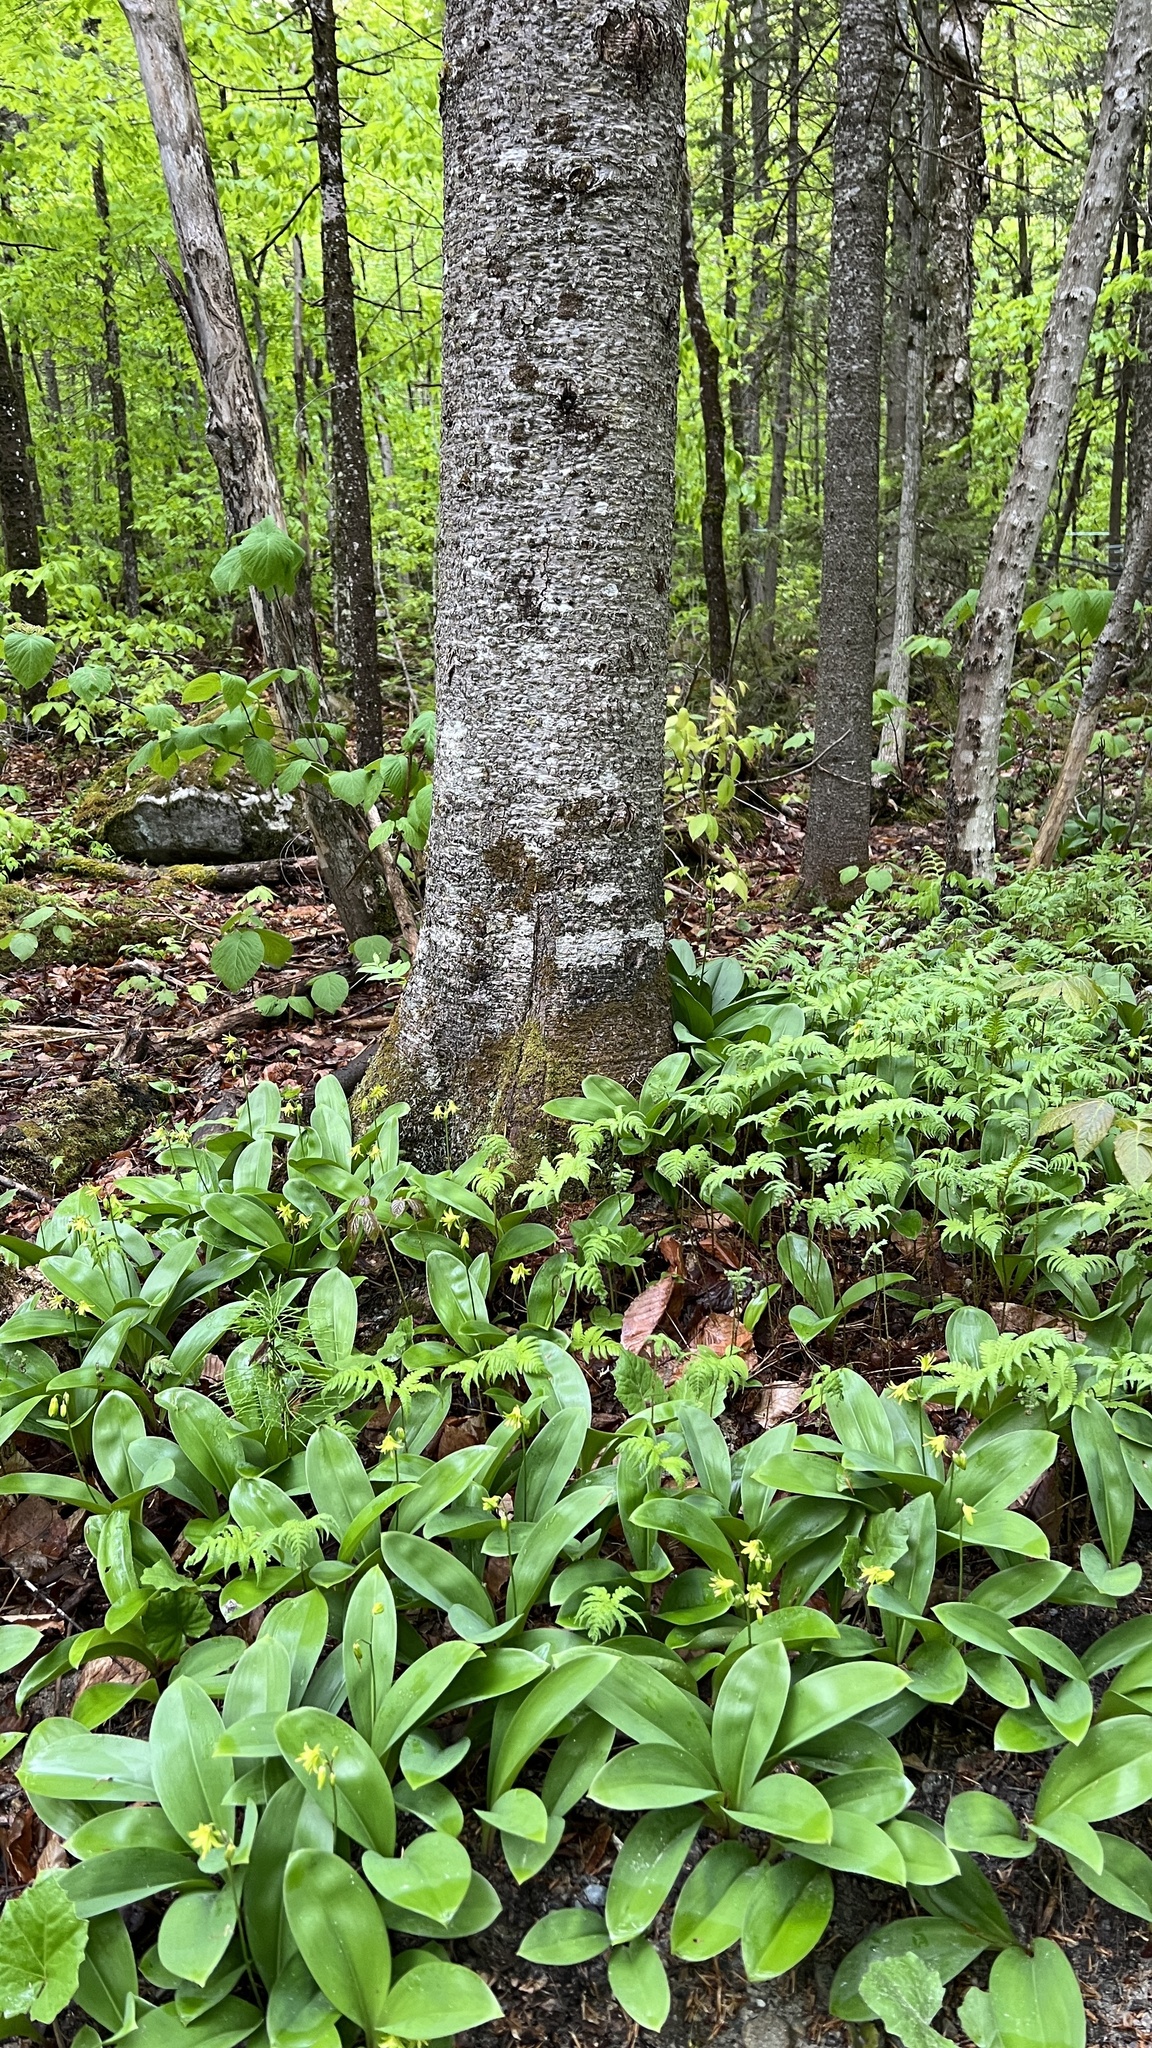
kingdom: Plantae
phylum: Tracheophyta
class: Liliopsida
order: Liliales
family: Liliaceae
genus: Clintonia
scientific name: Clintonia borealis
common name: Yellow clintonia
